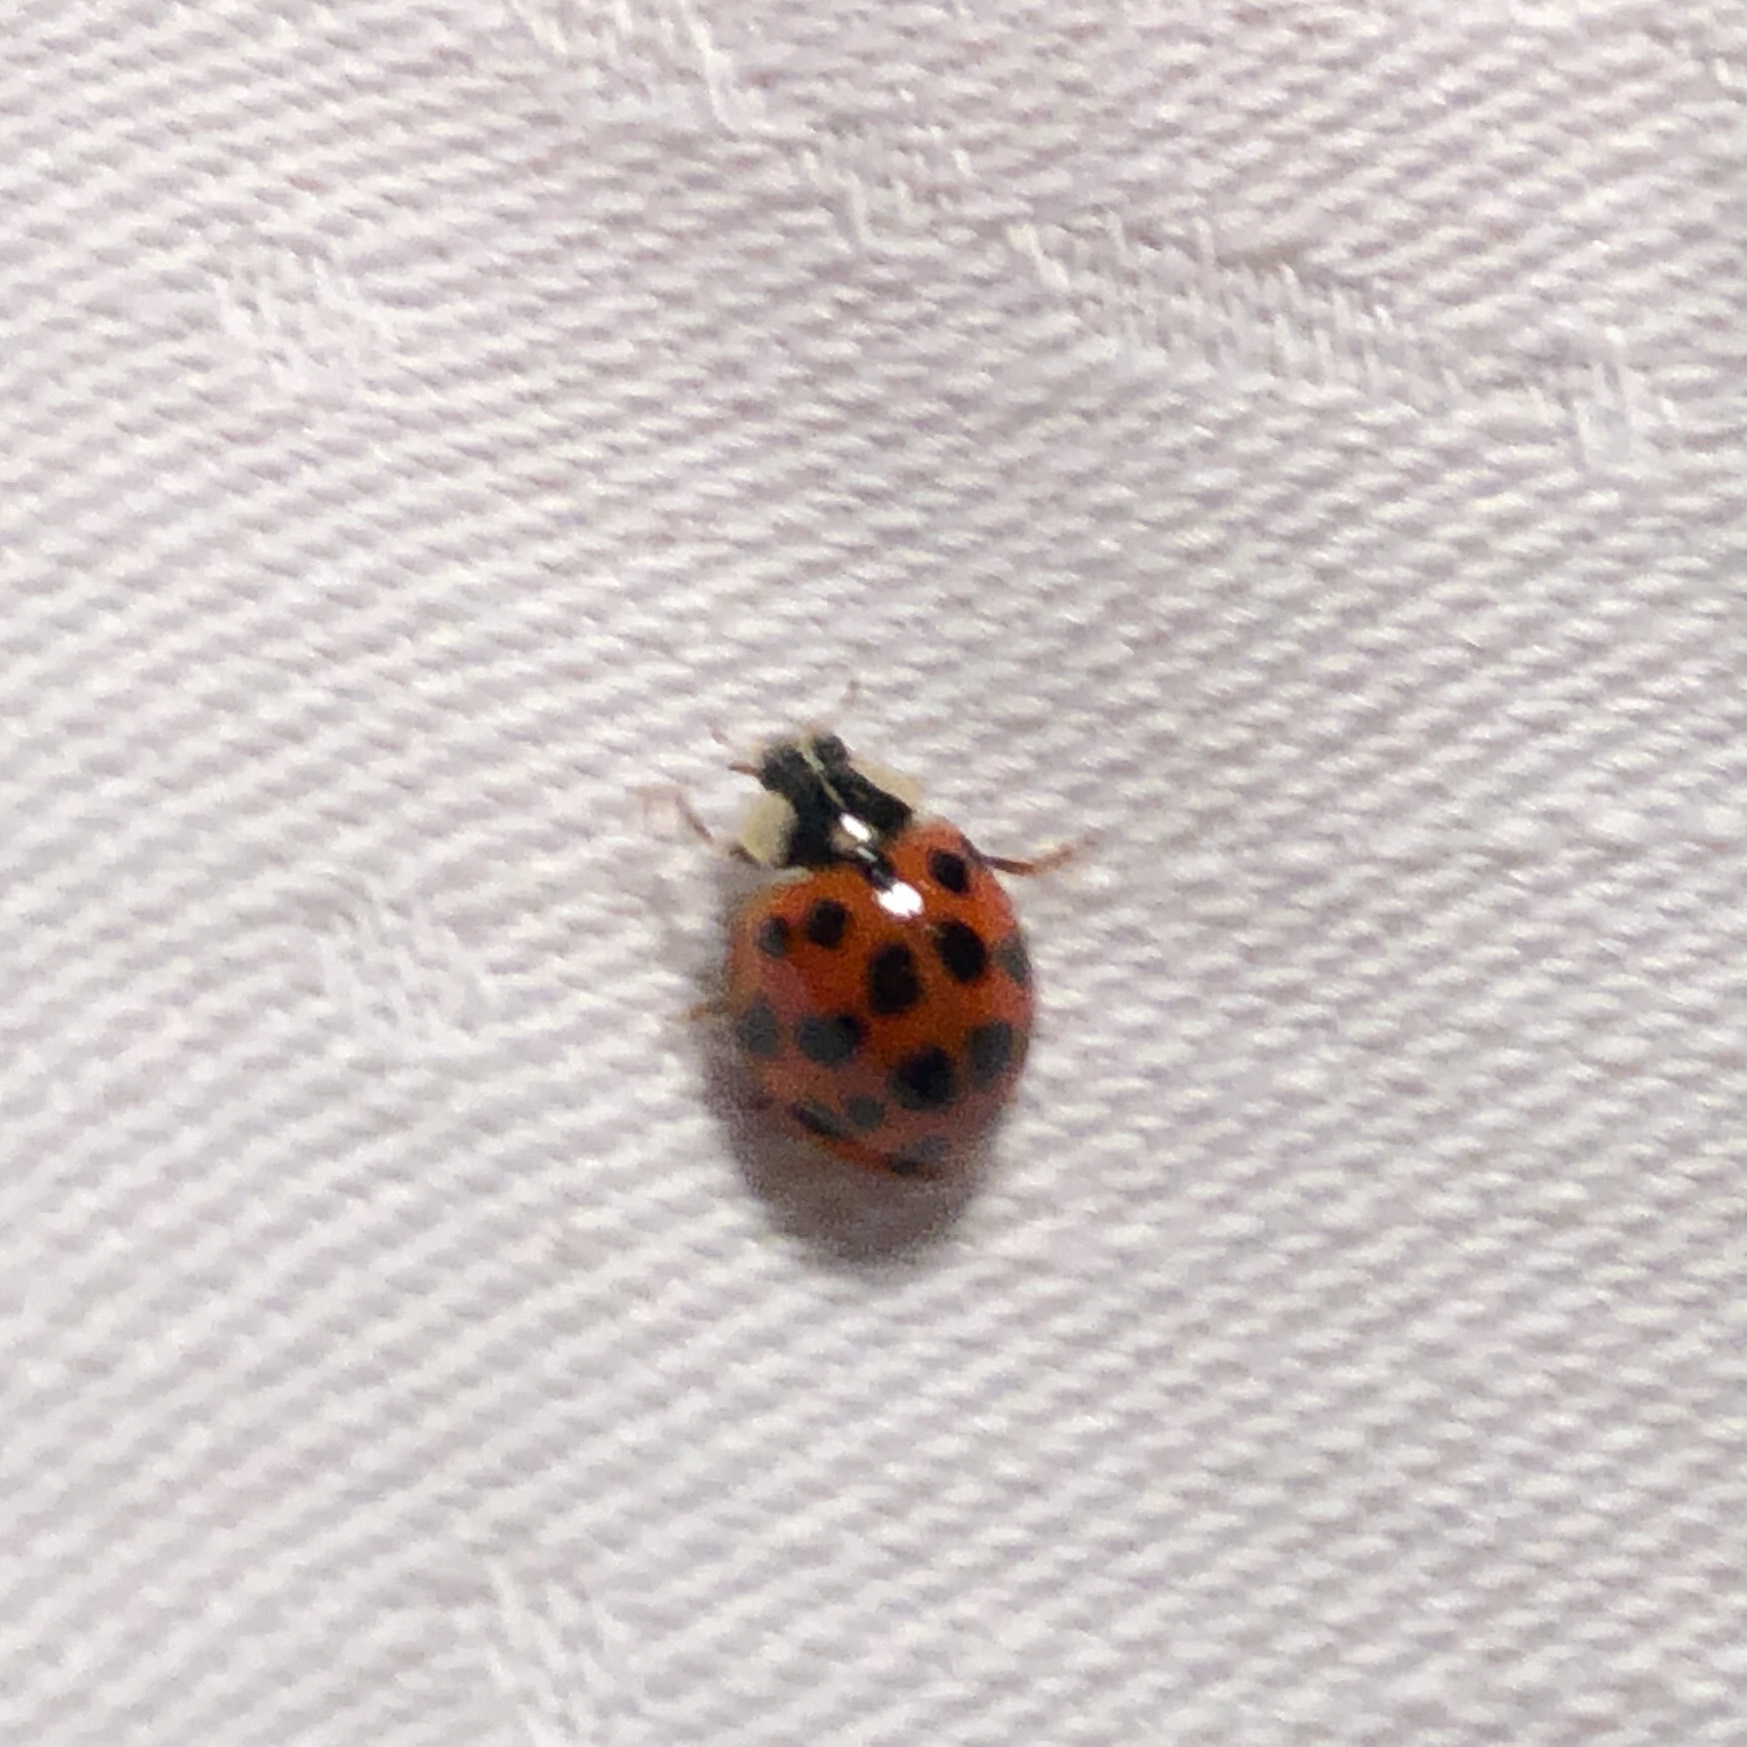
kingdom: Animalia
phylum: Arthropoda
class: Insecta
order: Coleoptera
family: Coccinellidae
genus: Harmonia
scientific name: Harmonia axyridis
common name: Harlequin ladybird
